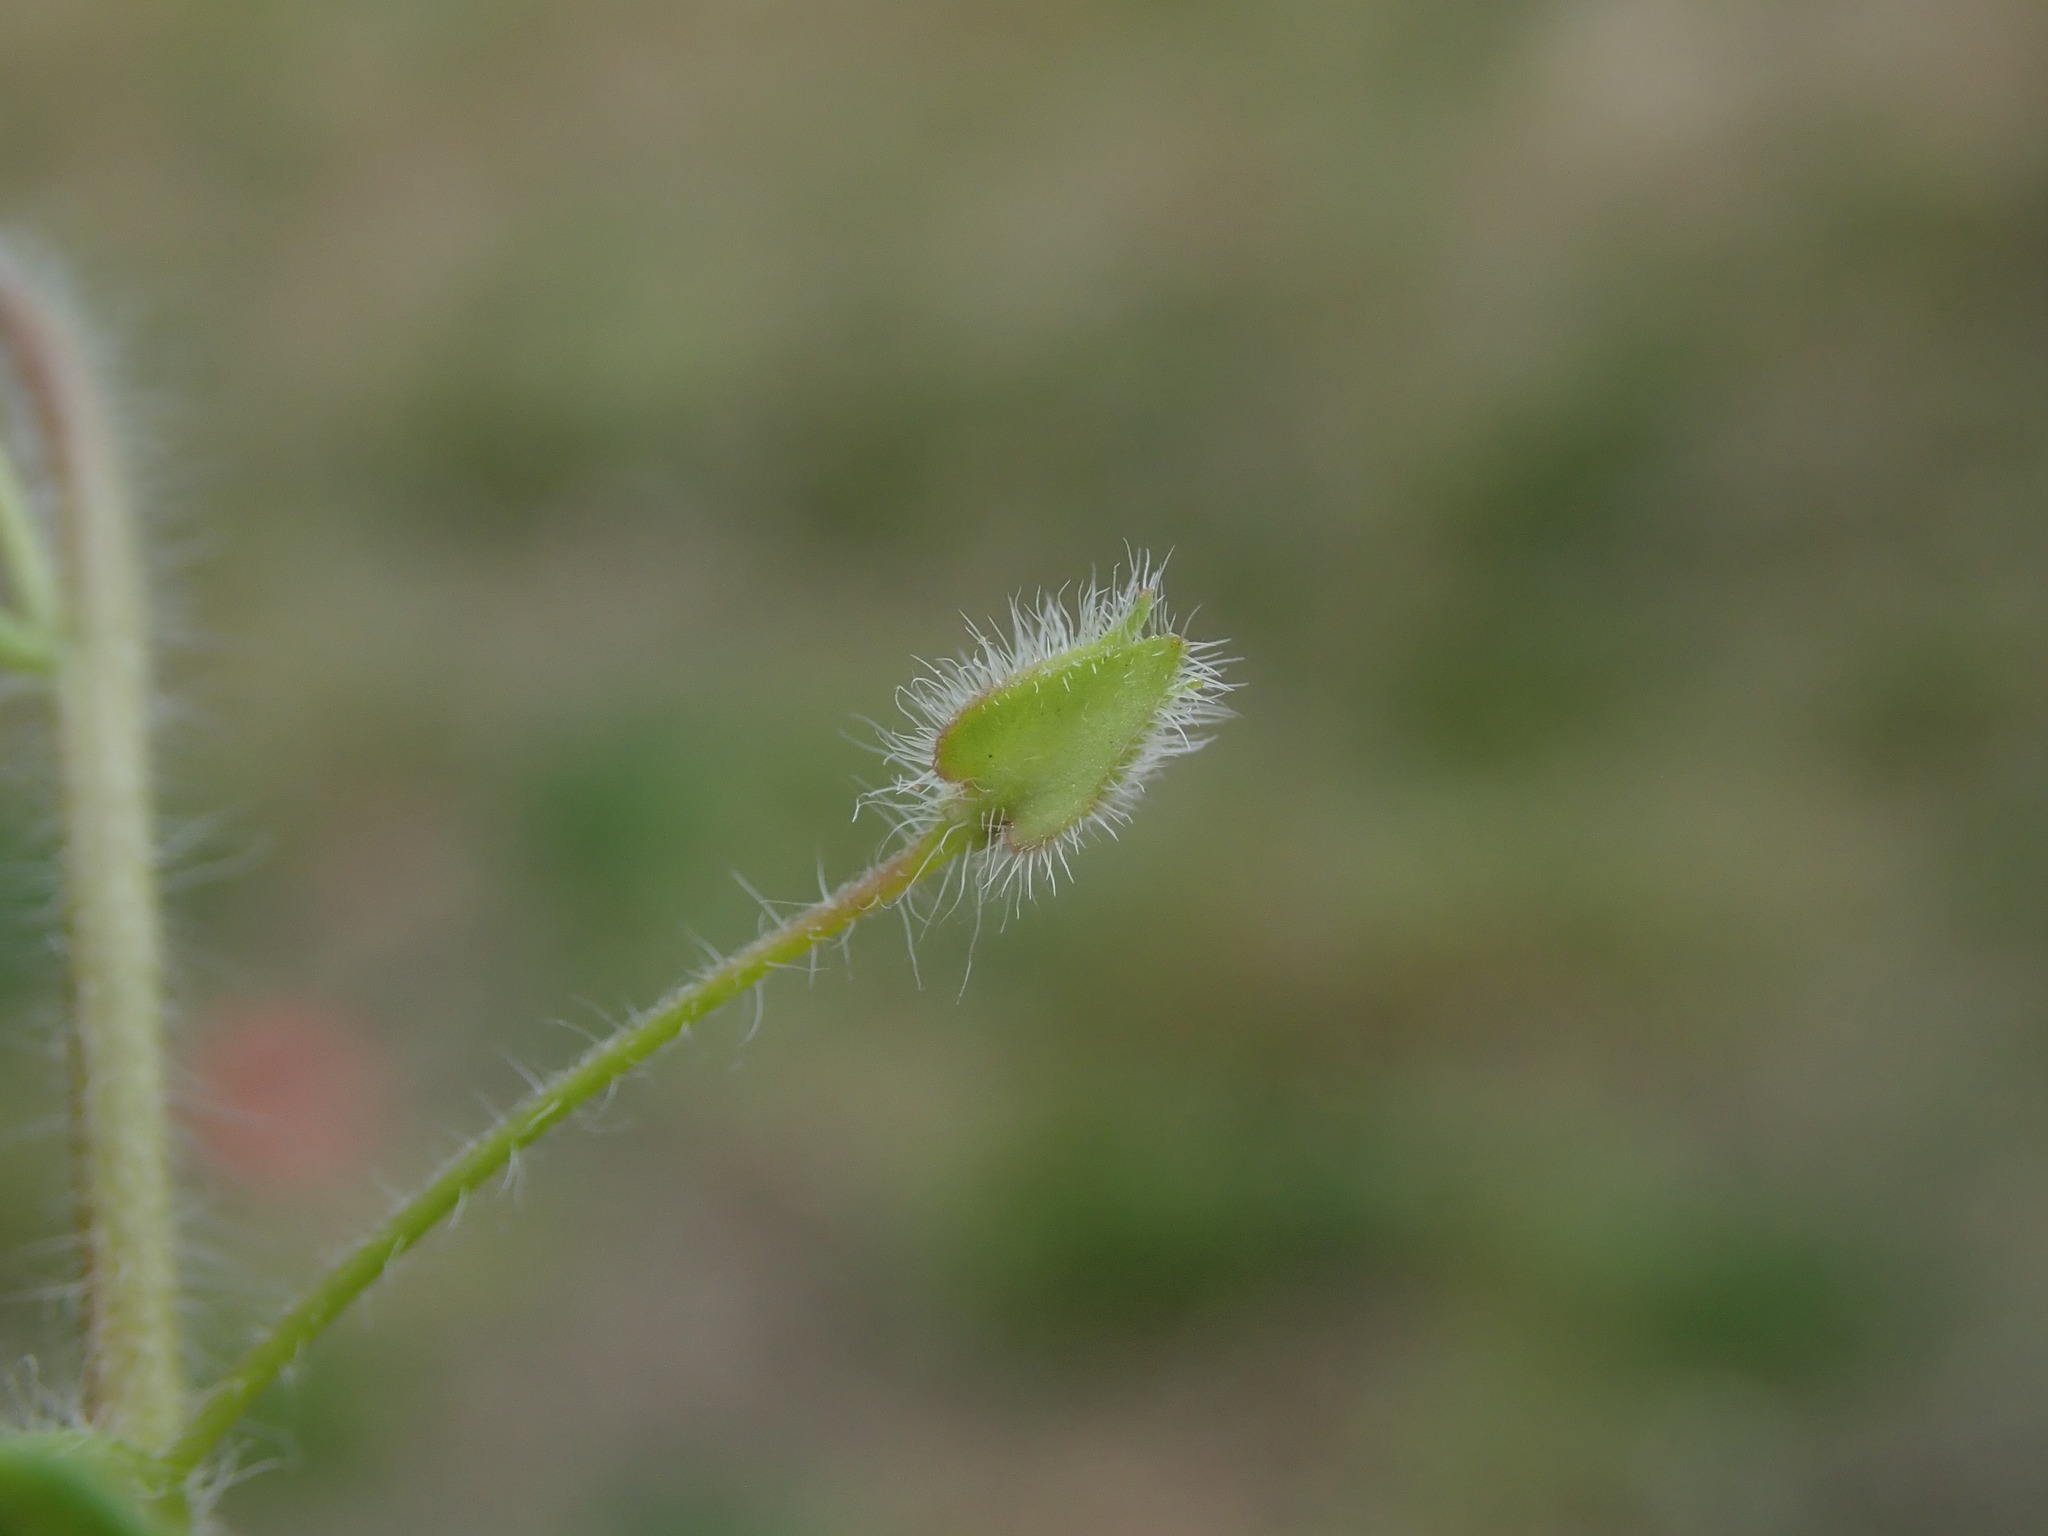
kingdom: Plantae
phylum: Tracheophyta
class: Magnoliopsida
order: Lamiales
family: Plantaginaceae
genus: Veronica
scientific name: Veronica sublobata
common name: False ivy-leaved speedwell
